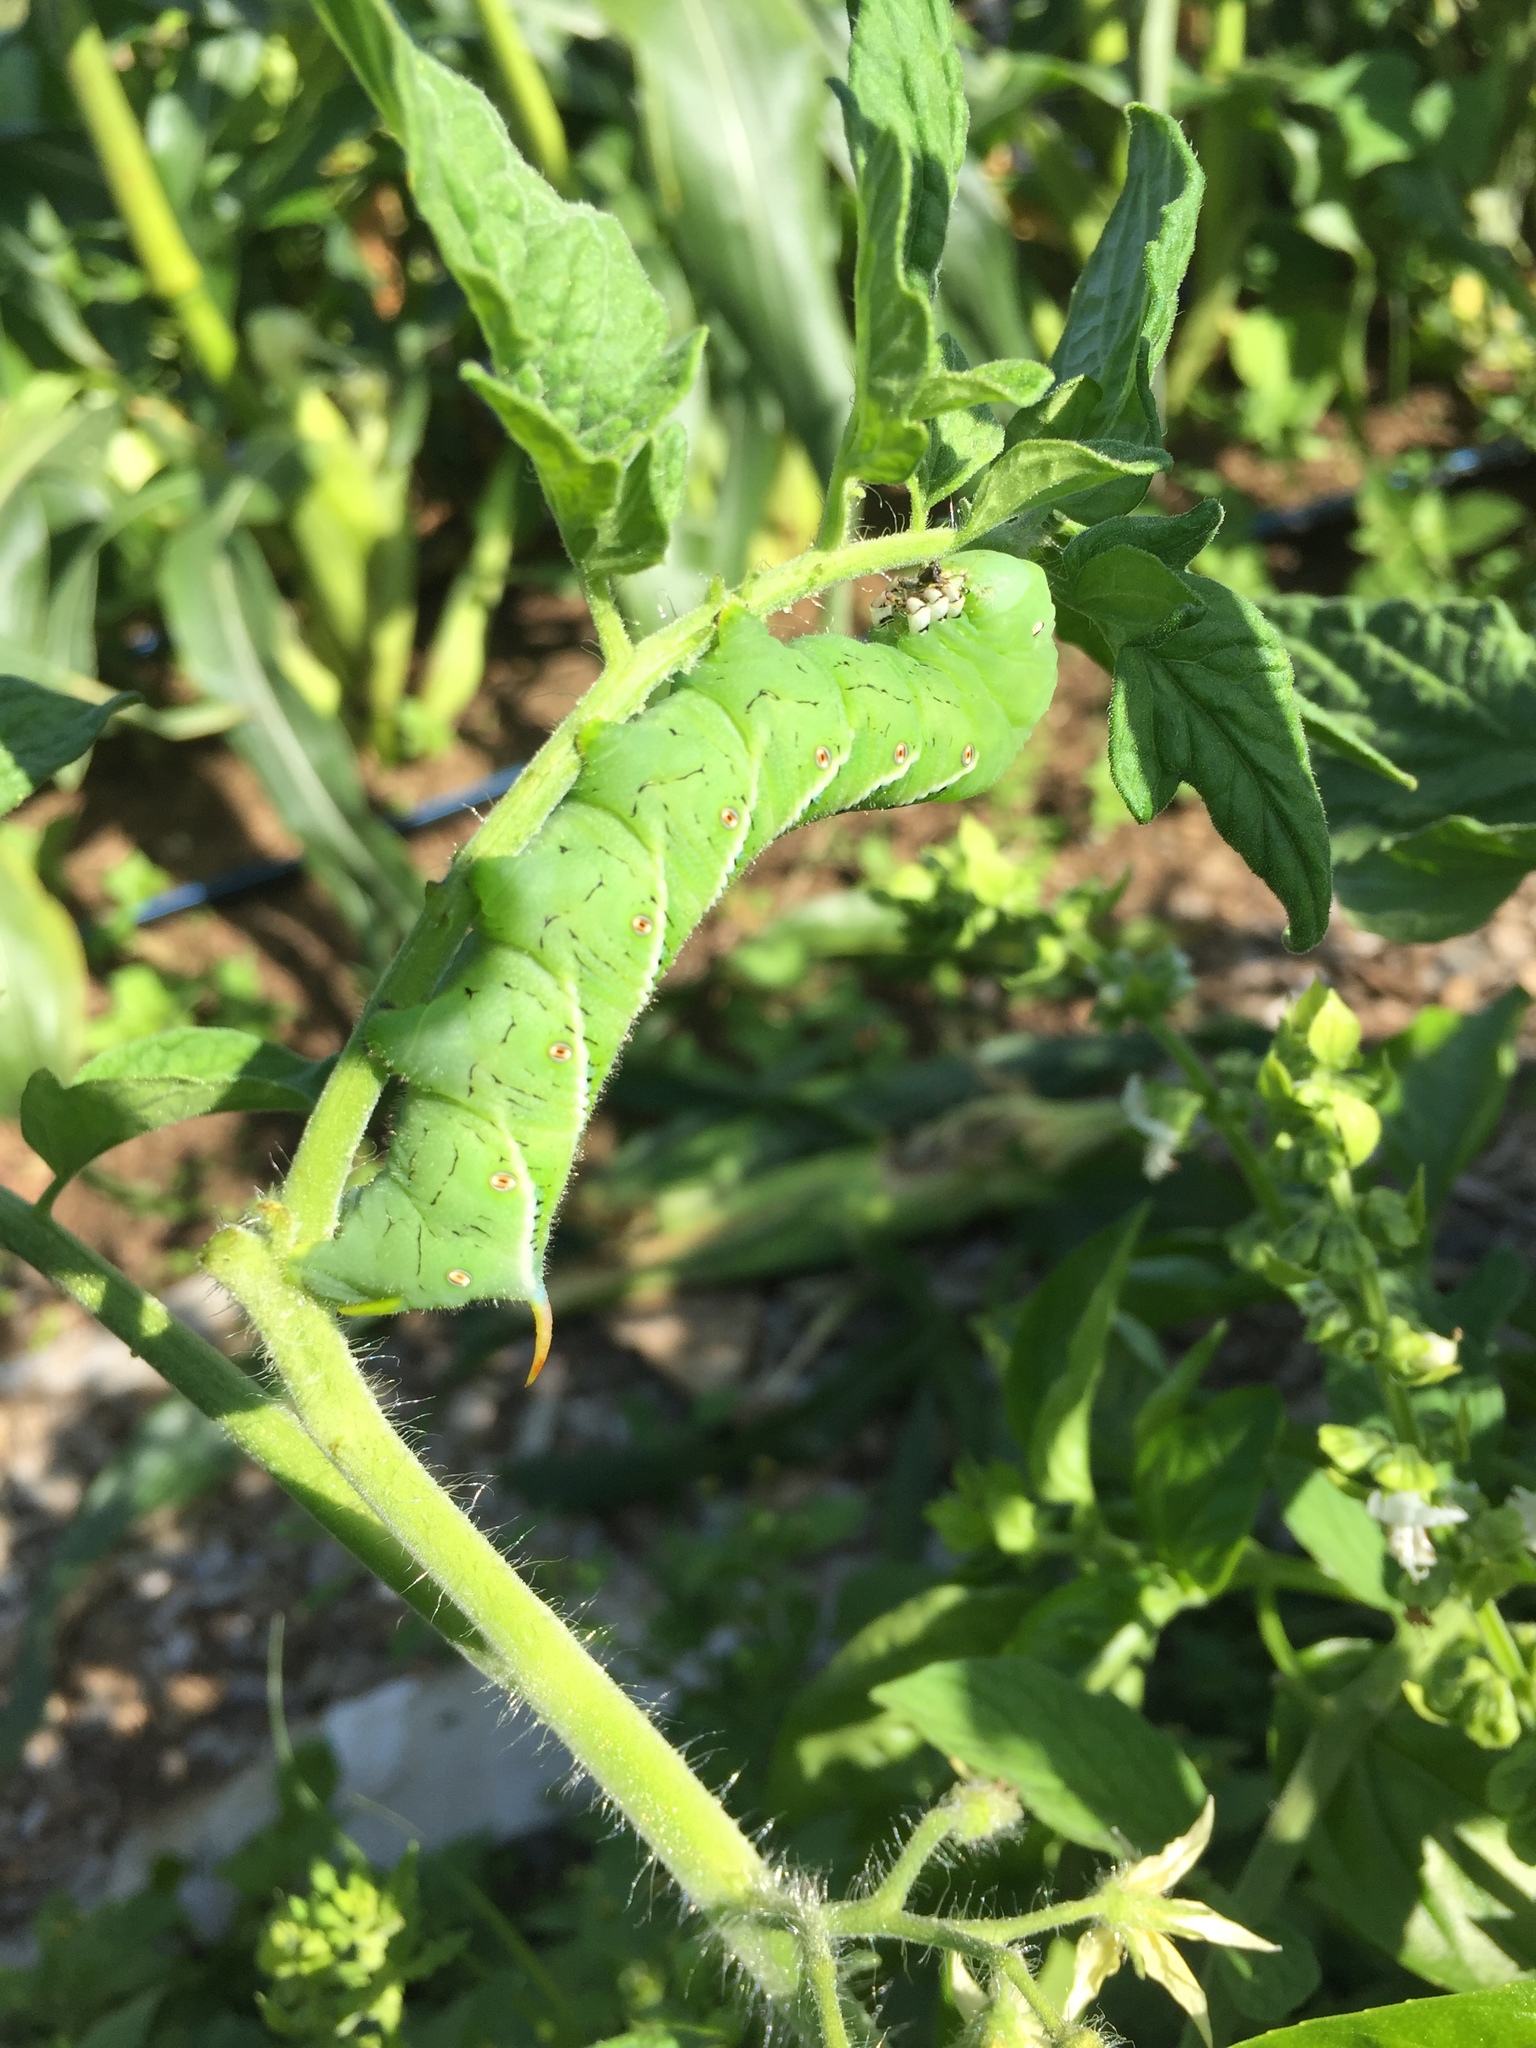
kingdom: Animalia
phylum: Arthropoda
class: Insecta
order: Lepidoptera
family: Sphingidae
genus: Manduca
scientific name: Manduca sexta
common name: Carolina sphinx
